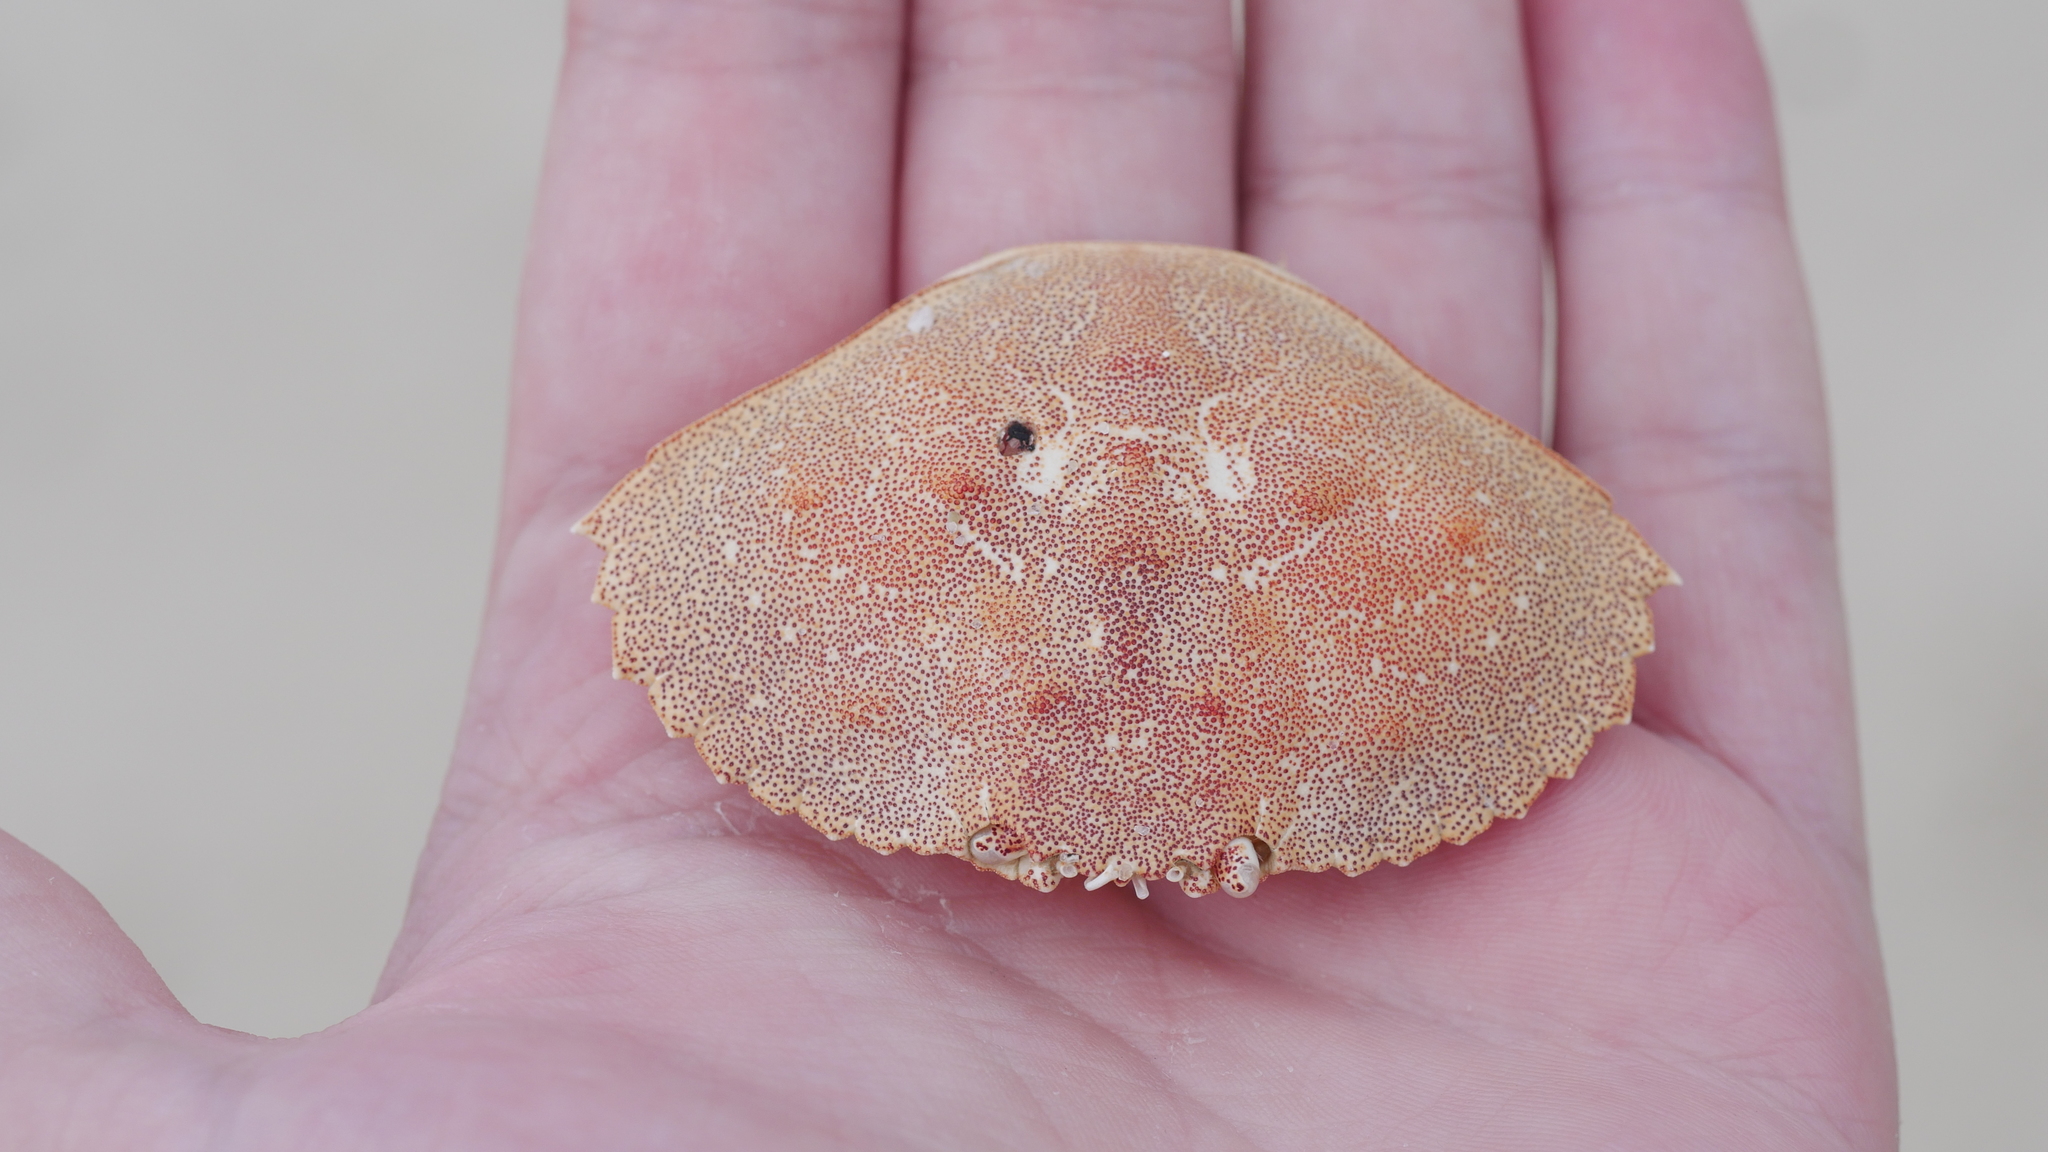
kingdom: Animalia
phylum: Arthropoda
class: Malacostraca
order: Decapoda
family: Cancridae
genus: Cancer
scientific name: Cancer irroratus
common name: Atlantic rock crab
